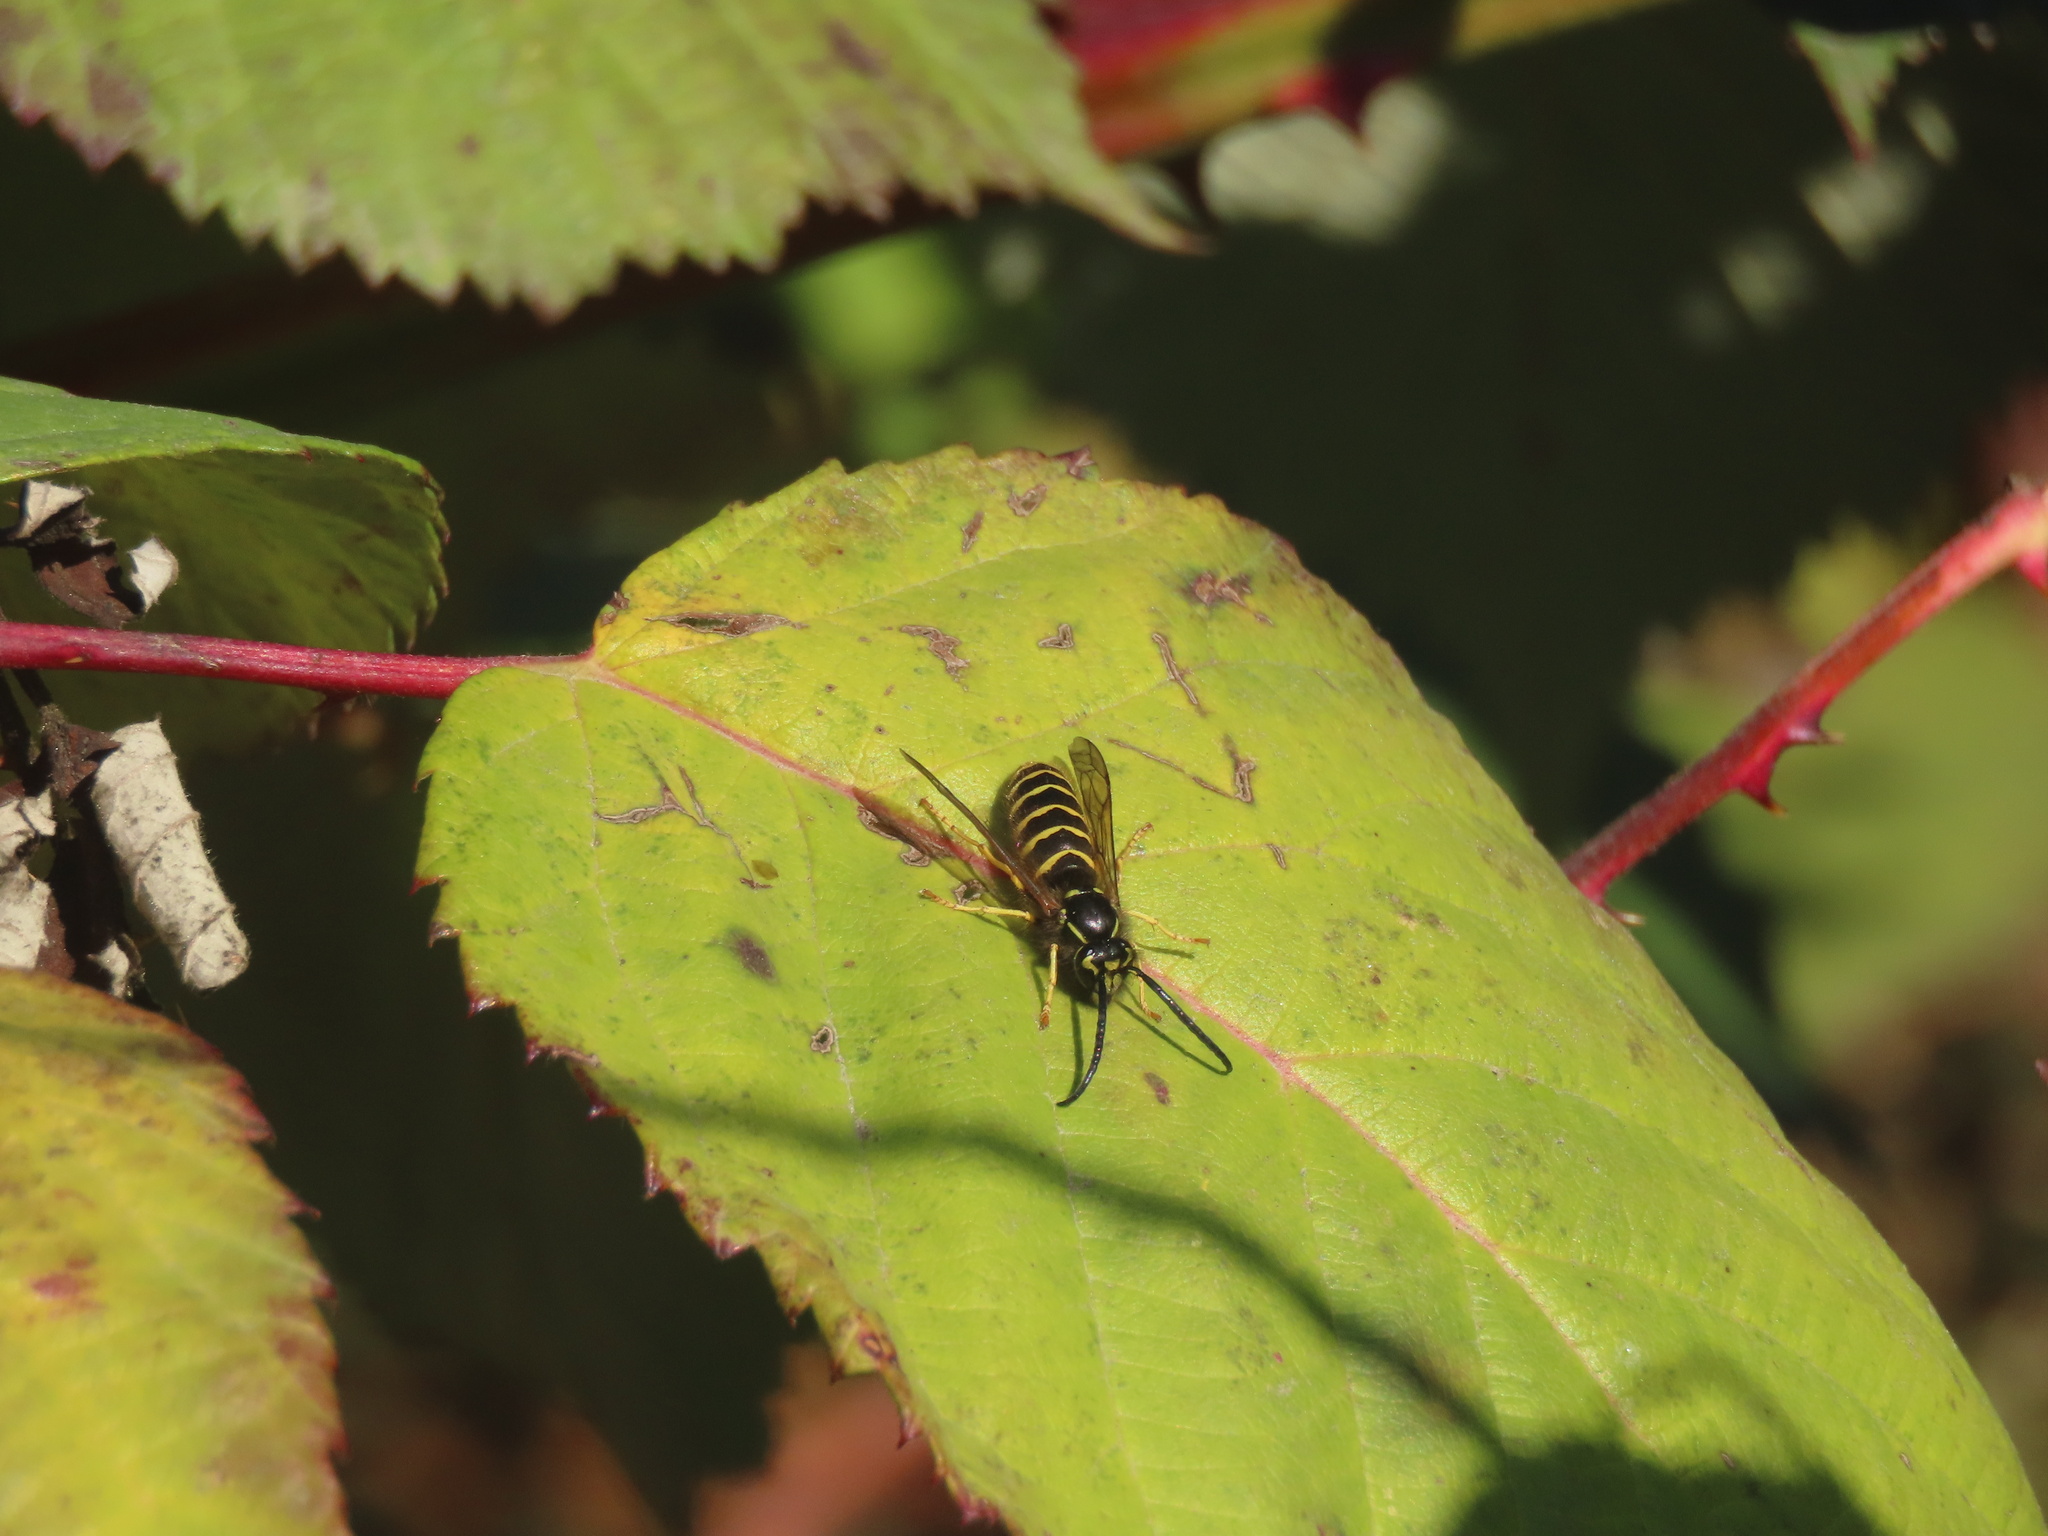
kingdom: Animalia
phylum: Arthropoda
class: Insecta
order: Hymenoptera
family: Vespidae
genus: Vespula
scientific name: Vespula alascensis
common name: Alaska yellowjacket
